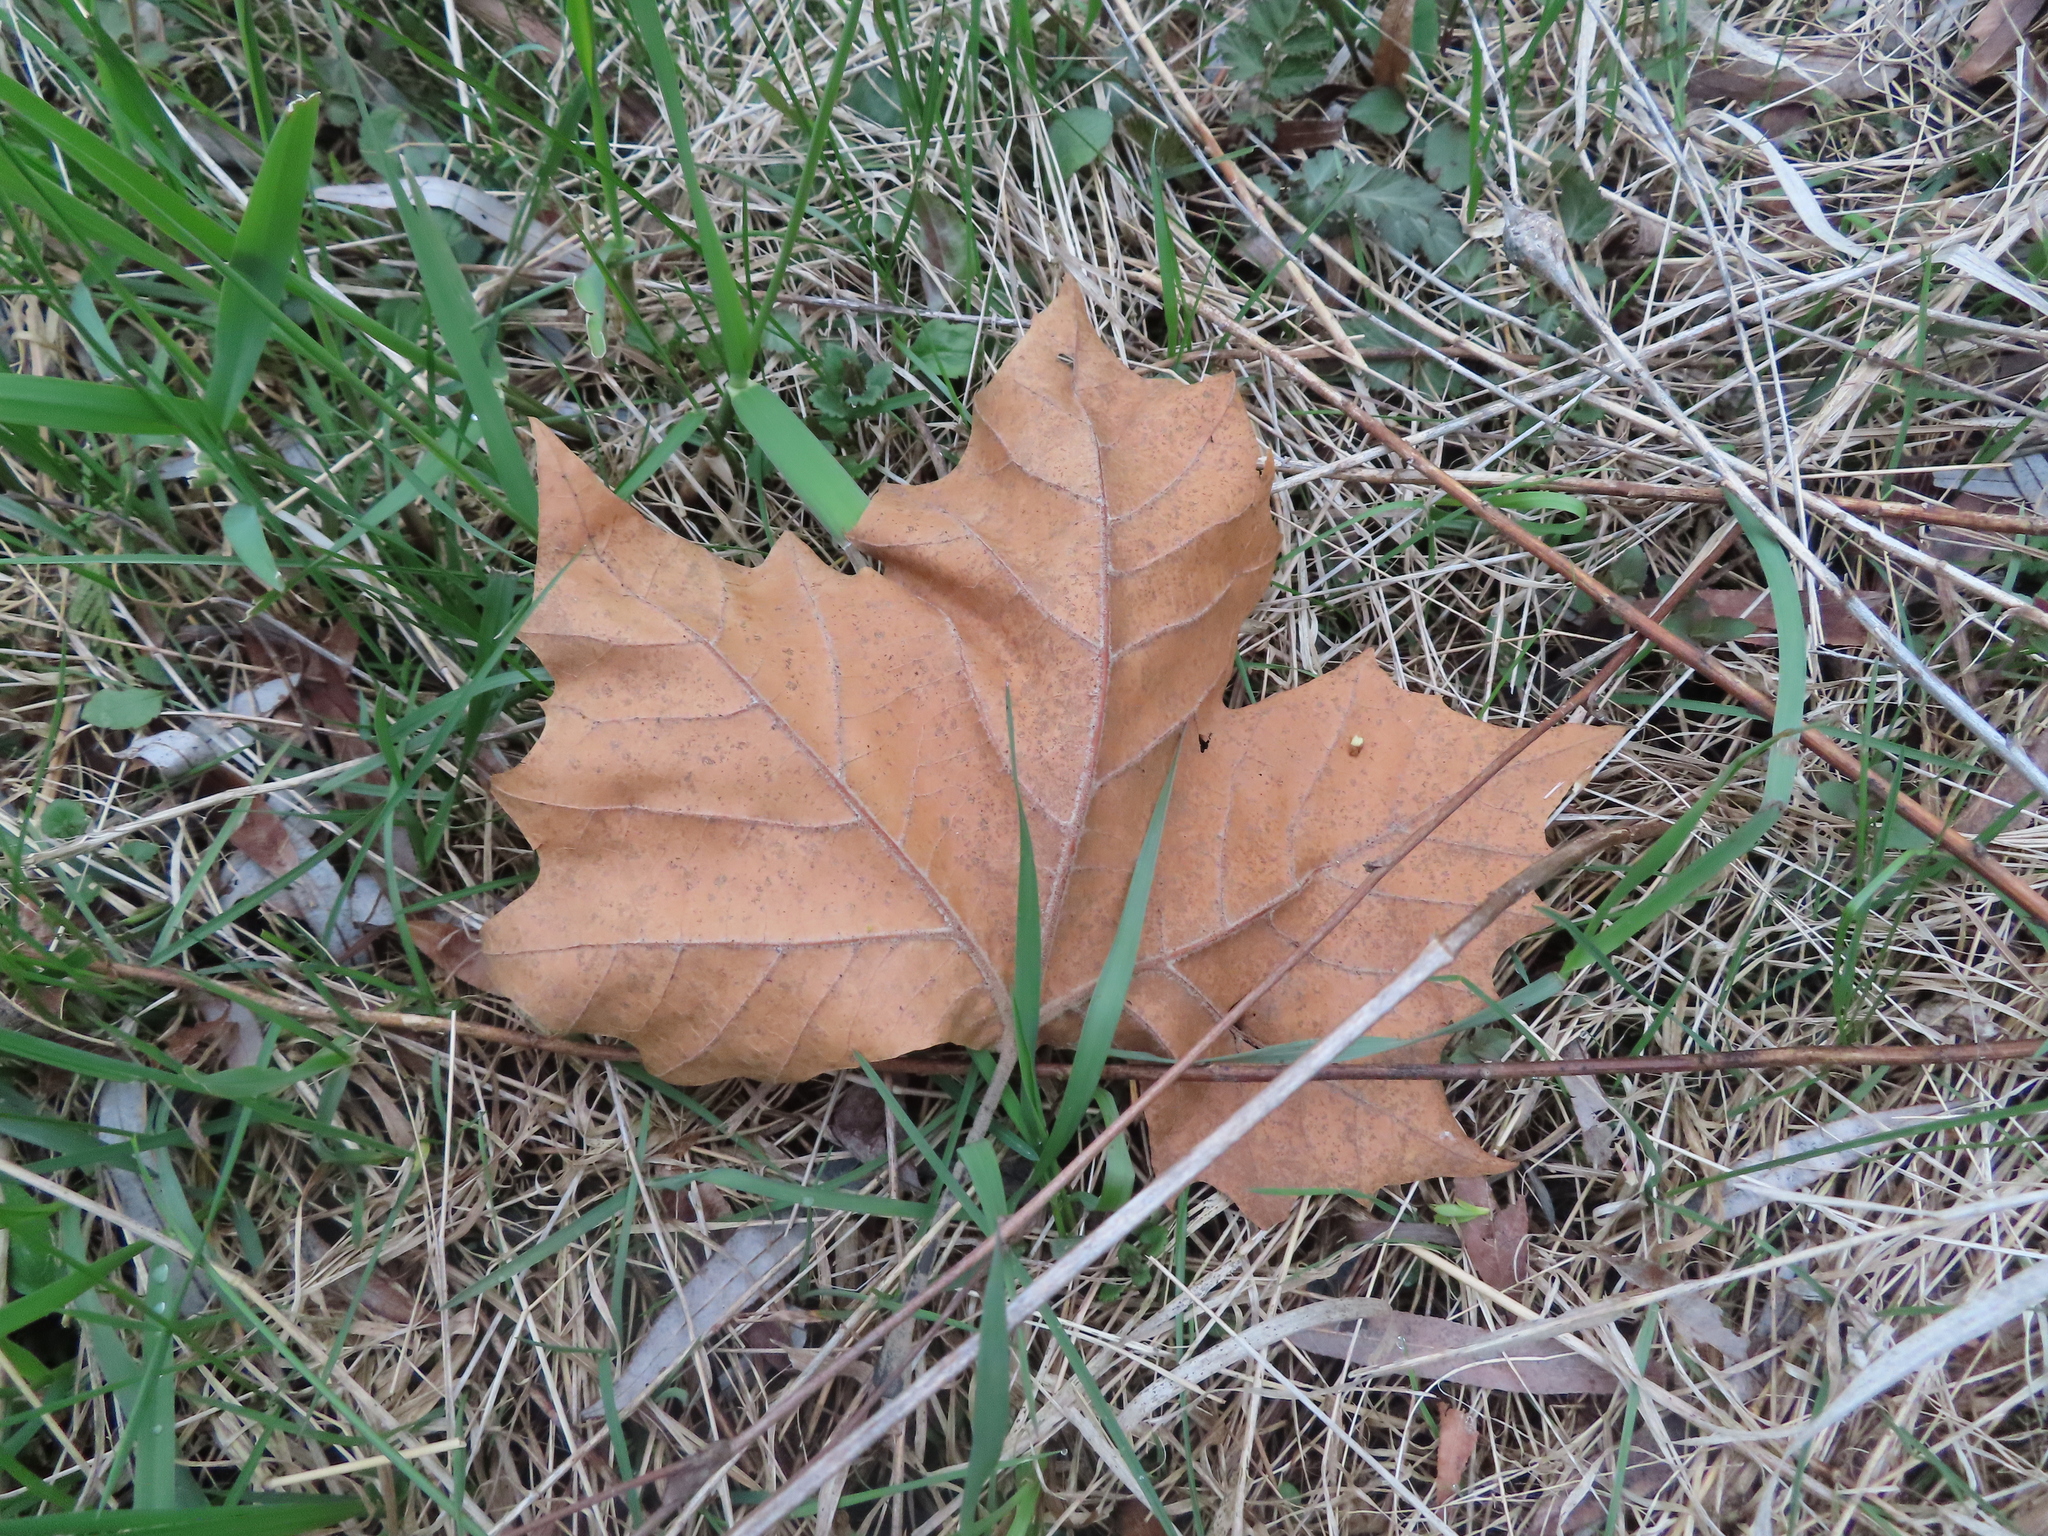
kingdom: Plantae
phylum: Tracheophyta
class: Magnoliopsida
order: Proteales
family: Platanaceae
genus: Platanus
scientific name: Platanus occidentalis
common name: American sycamore
